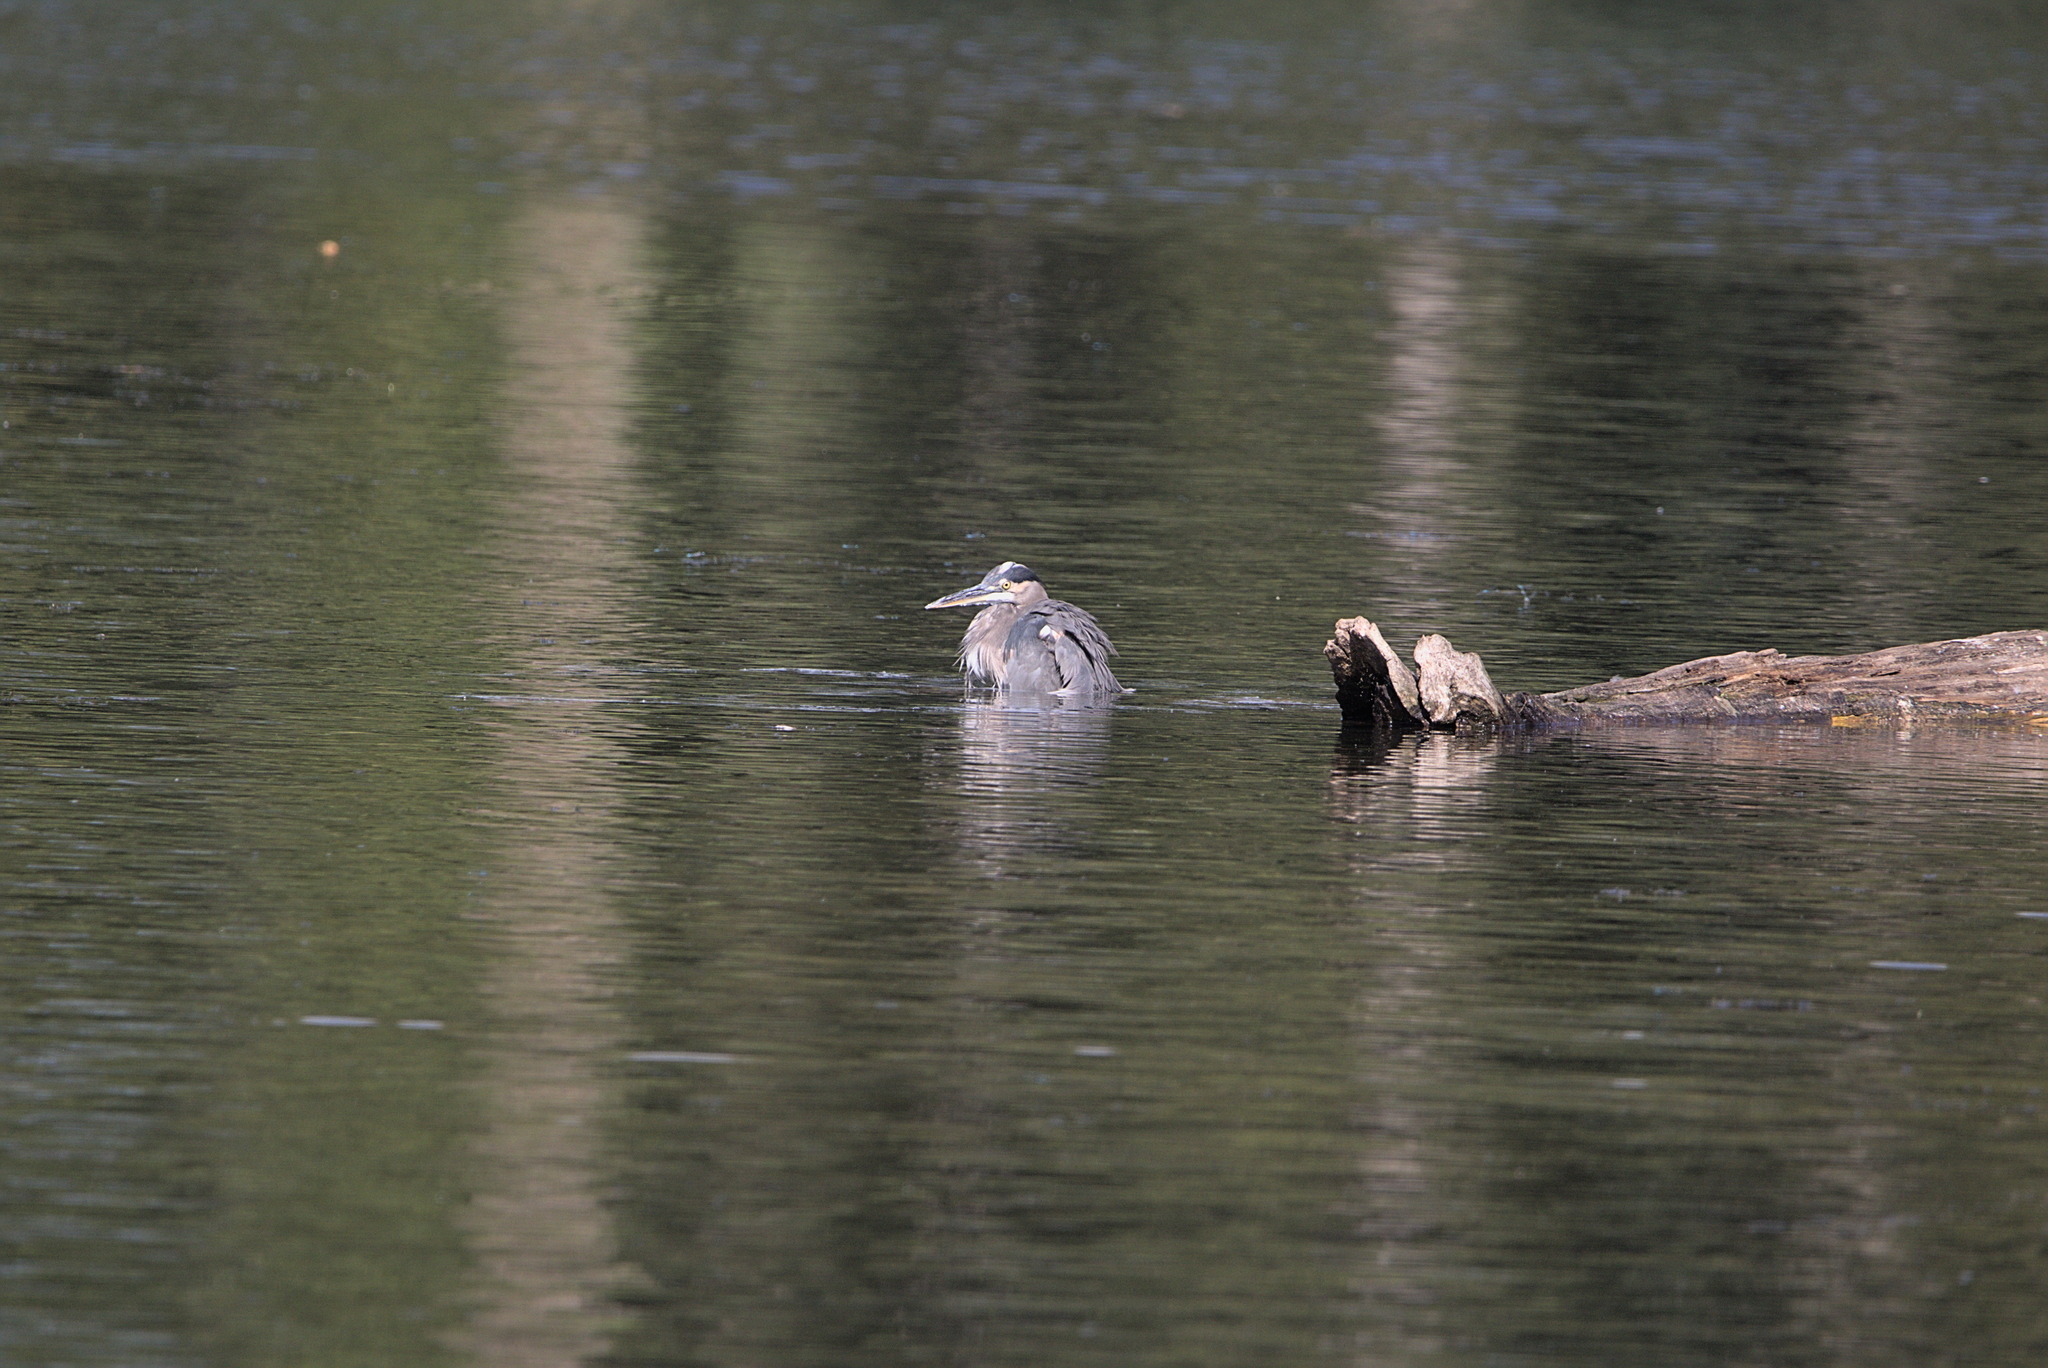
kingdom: Animalia
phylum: Chordata
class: Aves
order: Pelecaniformes
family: Ardeidae
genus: Ardea
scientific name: Ardea herodias
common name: Great blue heron
